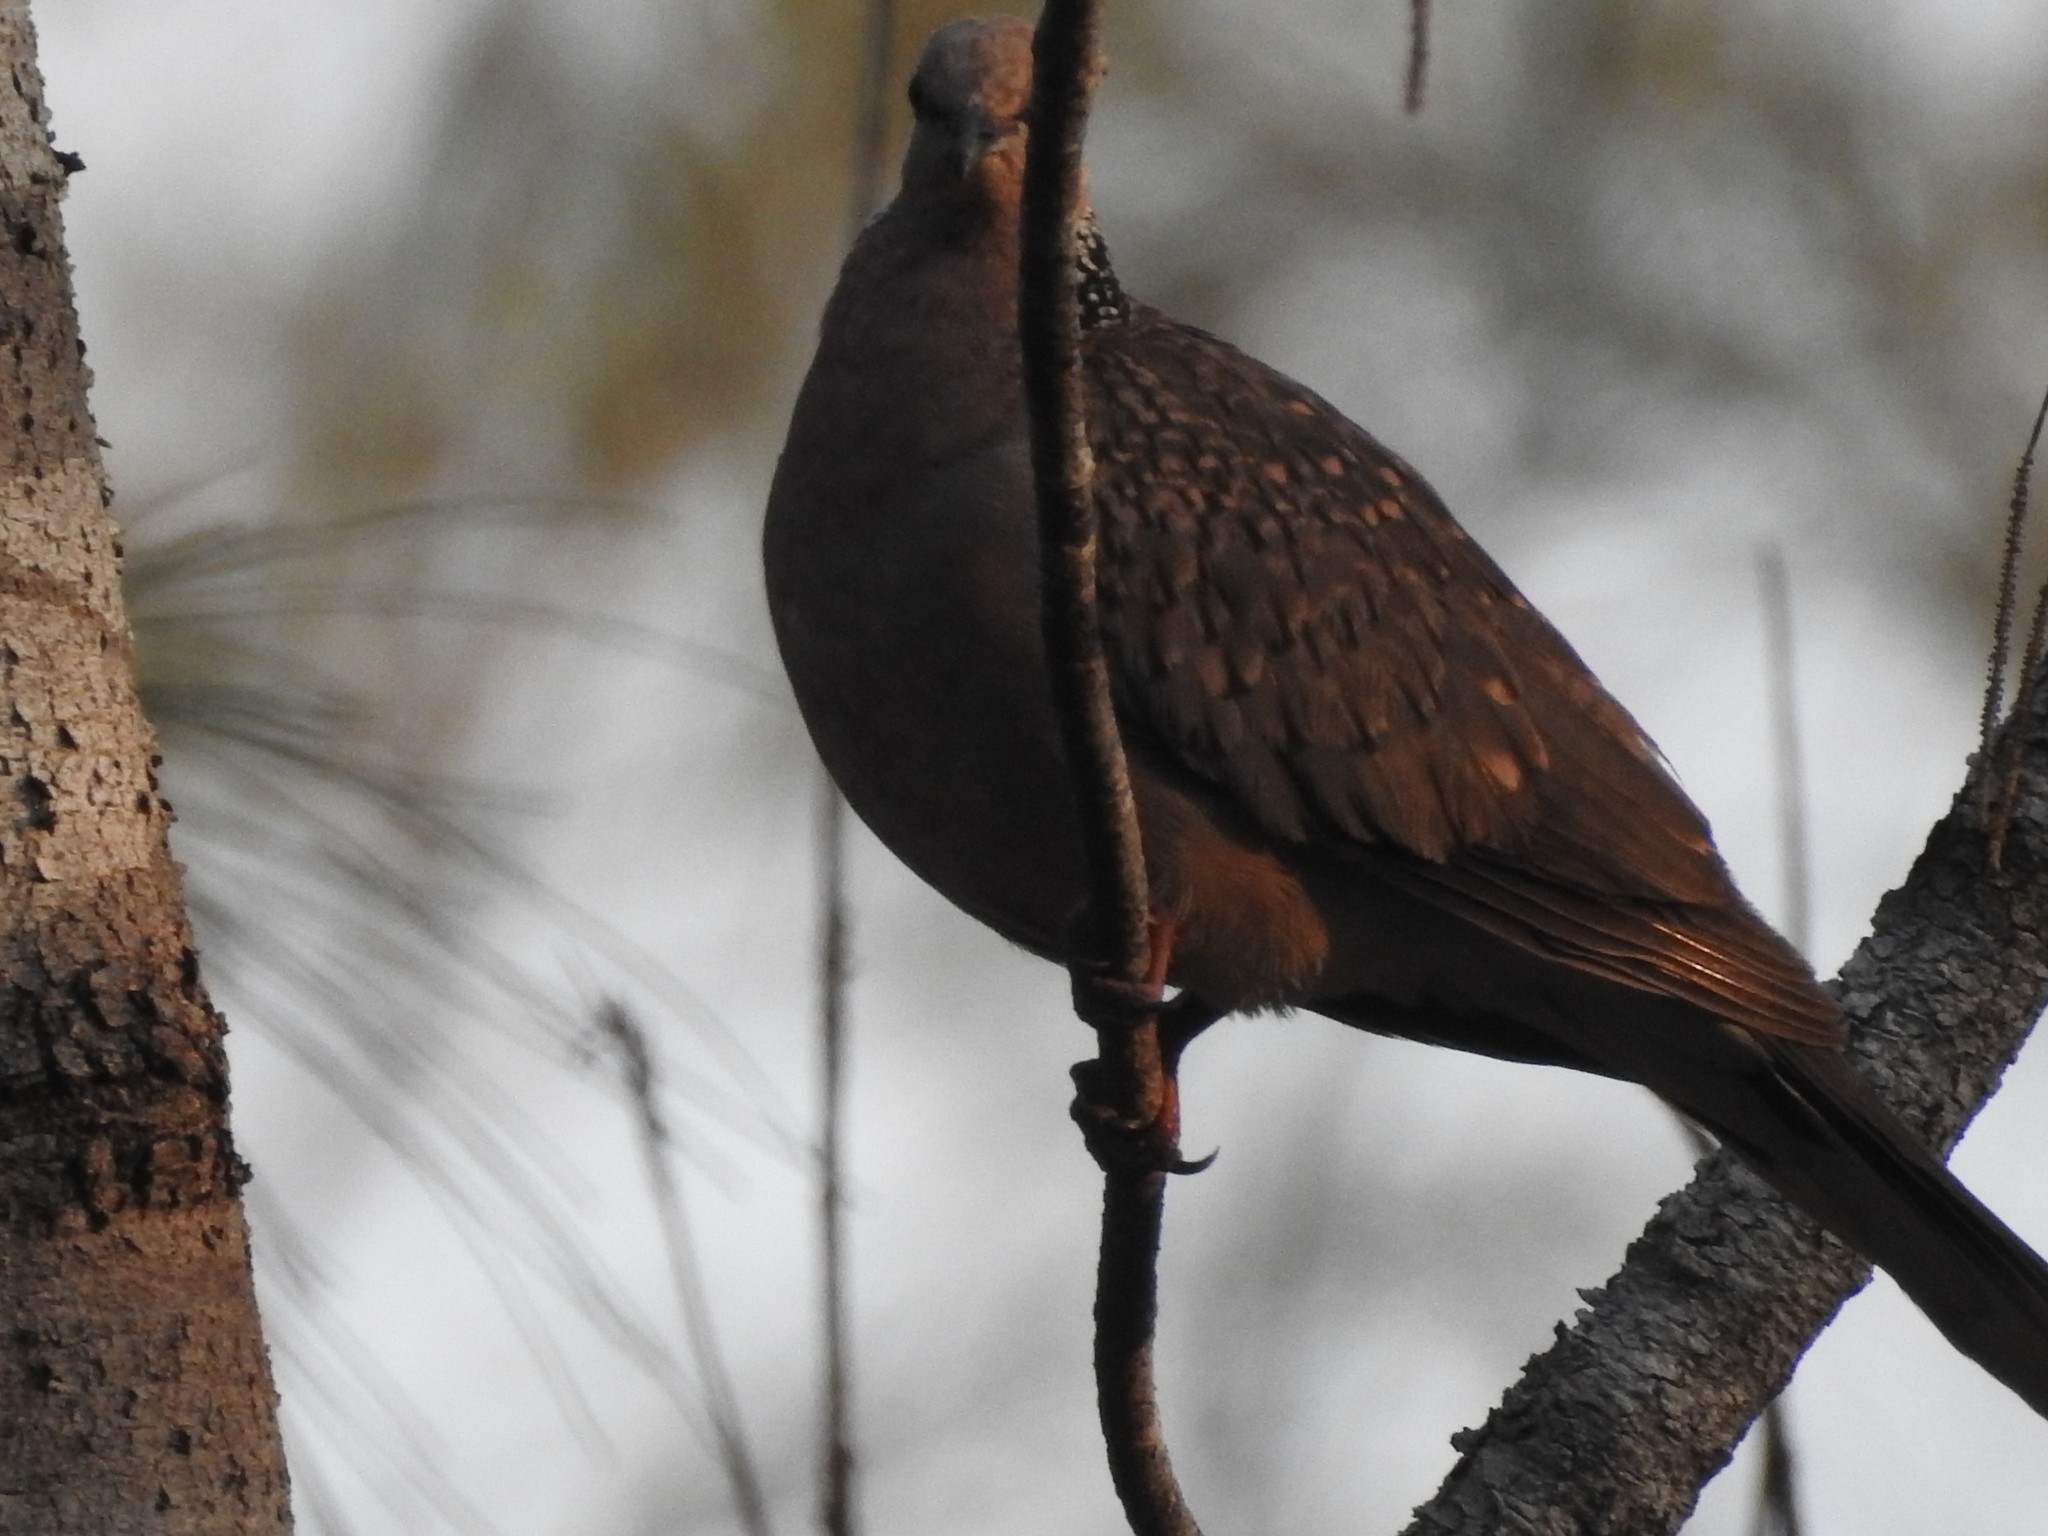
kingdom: Animalia
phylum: Chordata
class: Aves
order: Columbiformes
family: Columbidae
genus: Spilopelia
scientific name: Spilopelia chinensis
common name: Spotted dove
